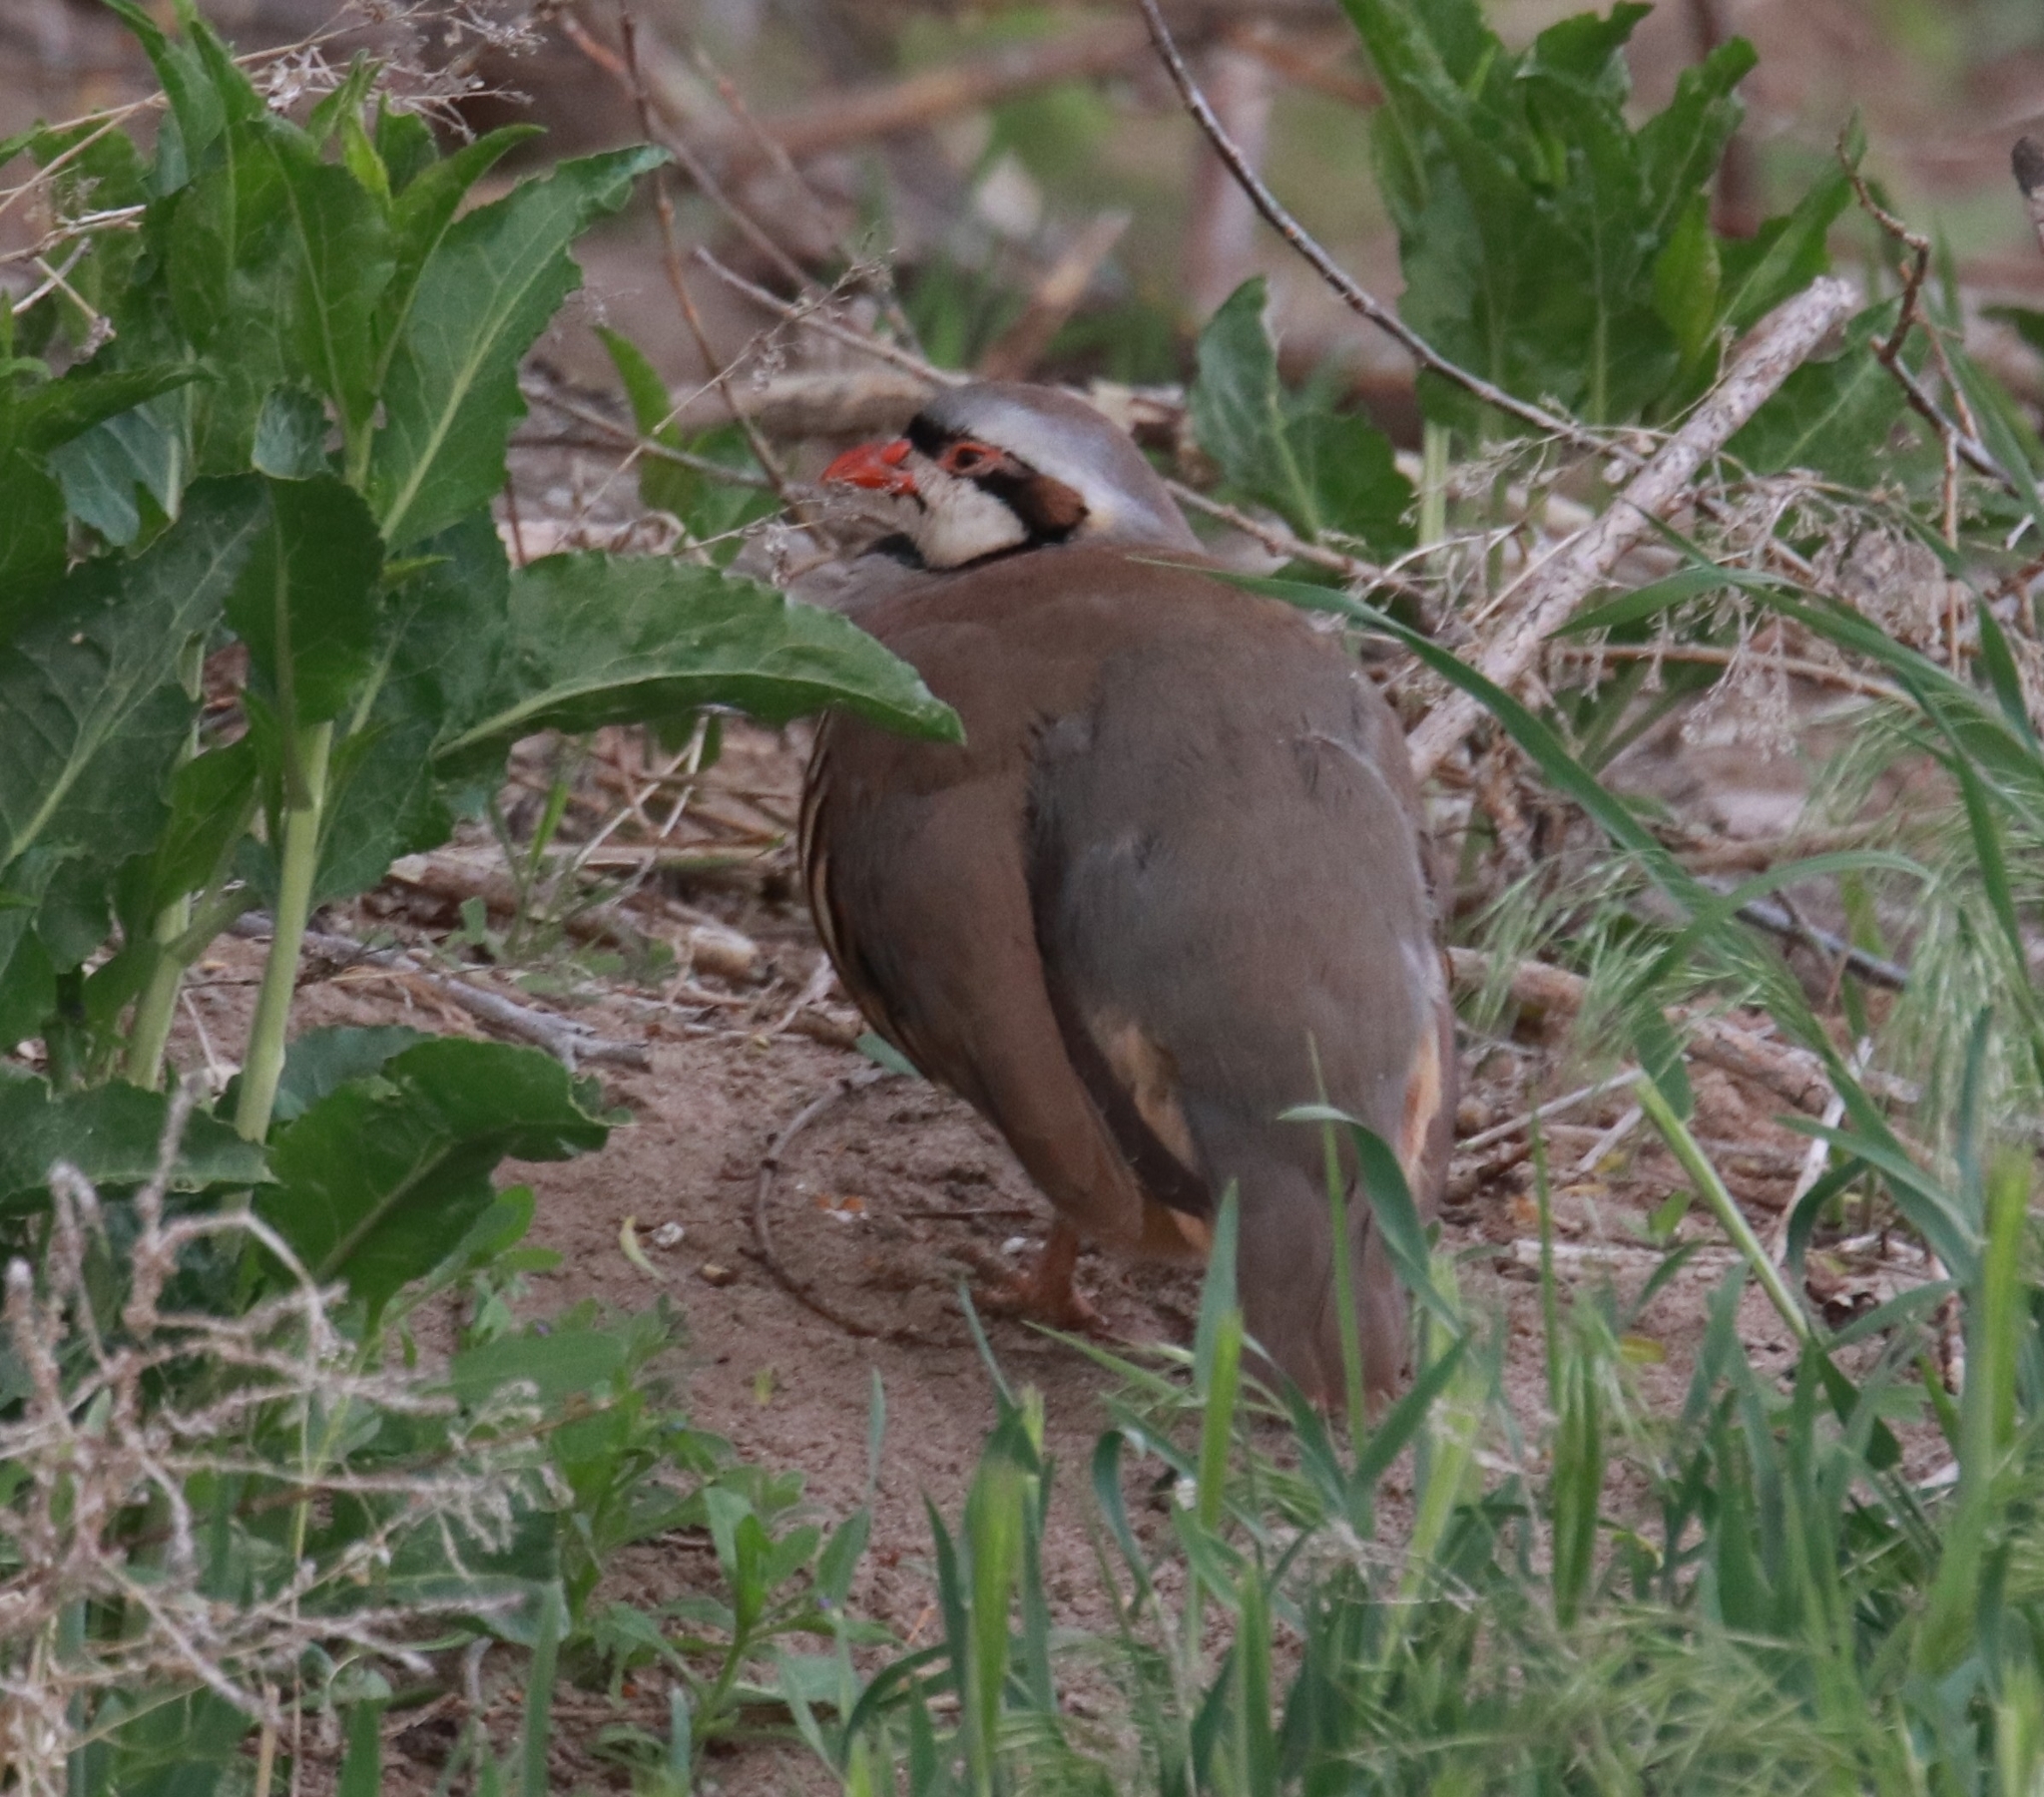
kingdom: Animalia
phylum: Chordata
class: Aves
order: Galliformes
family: Phasianidae
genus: Alectoris
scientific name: Alectoris chukar
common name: Chukar
